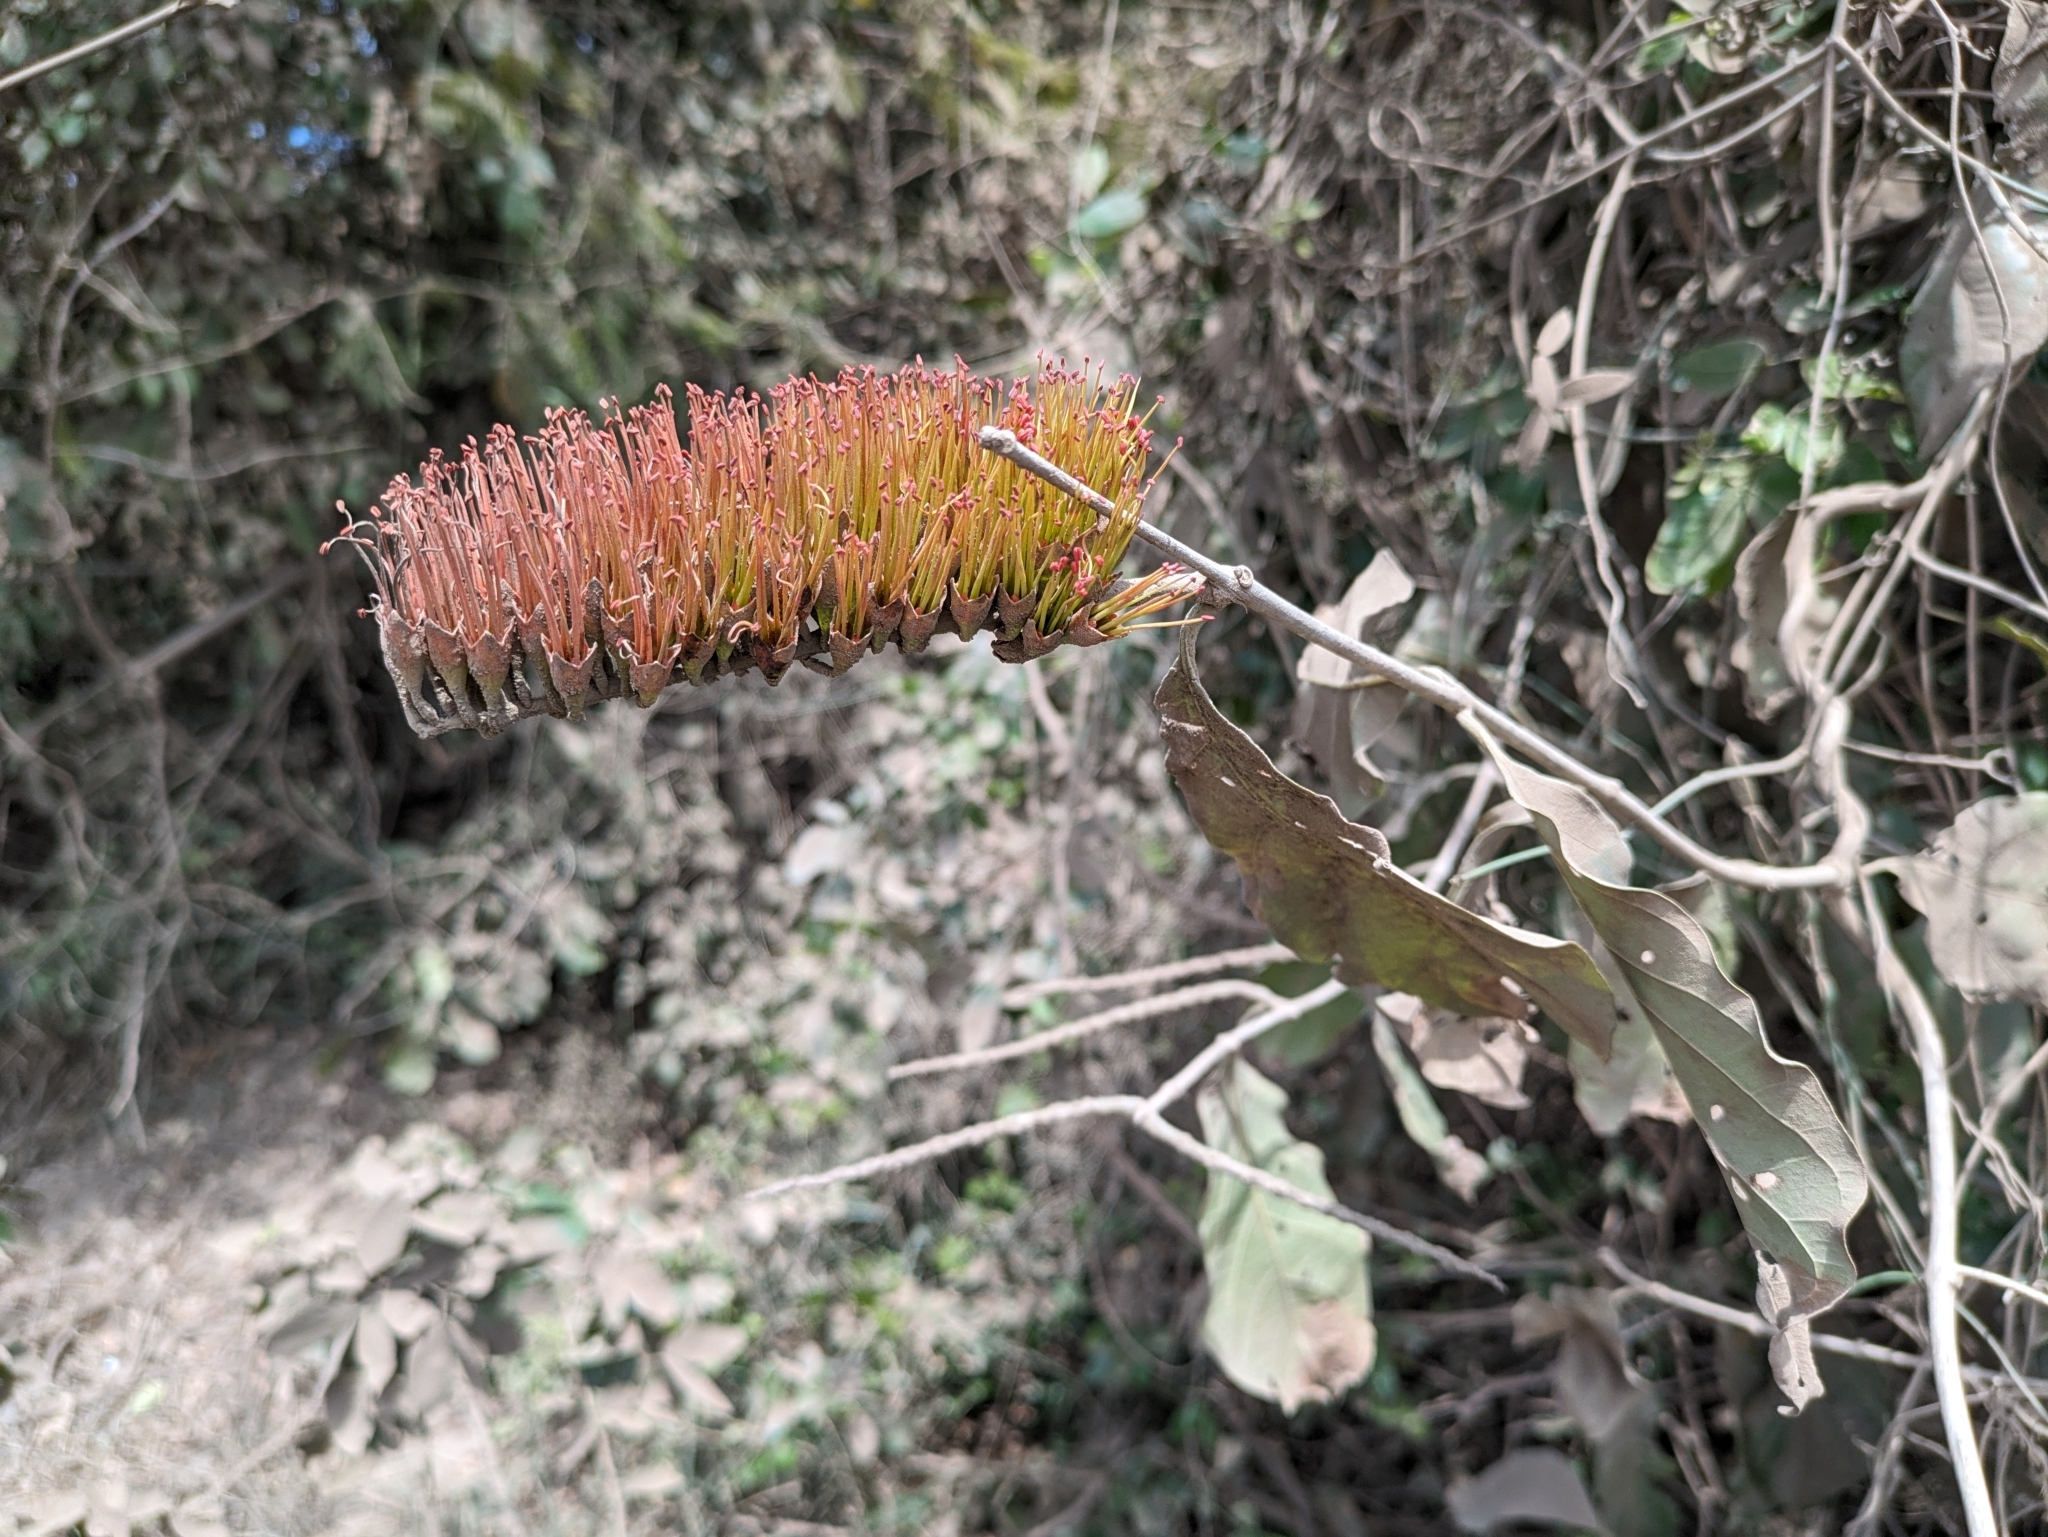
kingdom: Plantae
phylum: Tracheophyta
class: Magnoliopsida
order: Myrtales
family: Combretaceae
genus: Combretum
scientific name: Combretum farinosum
